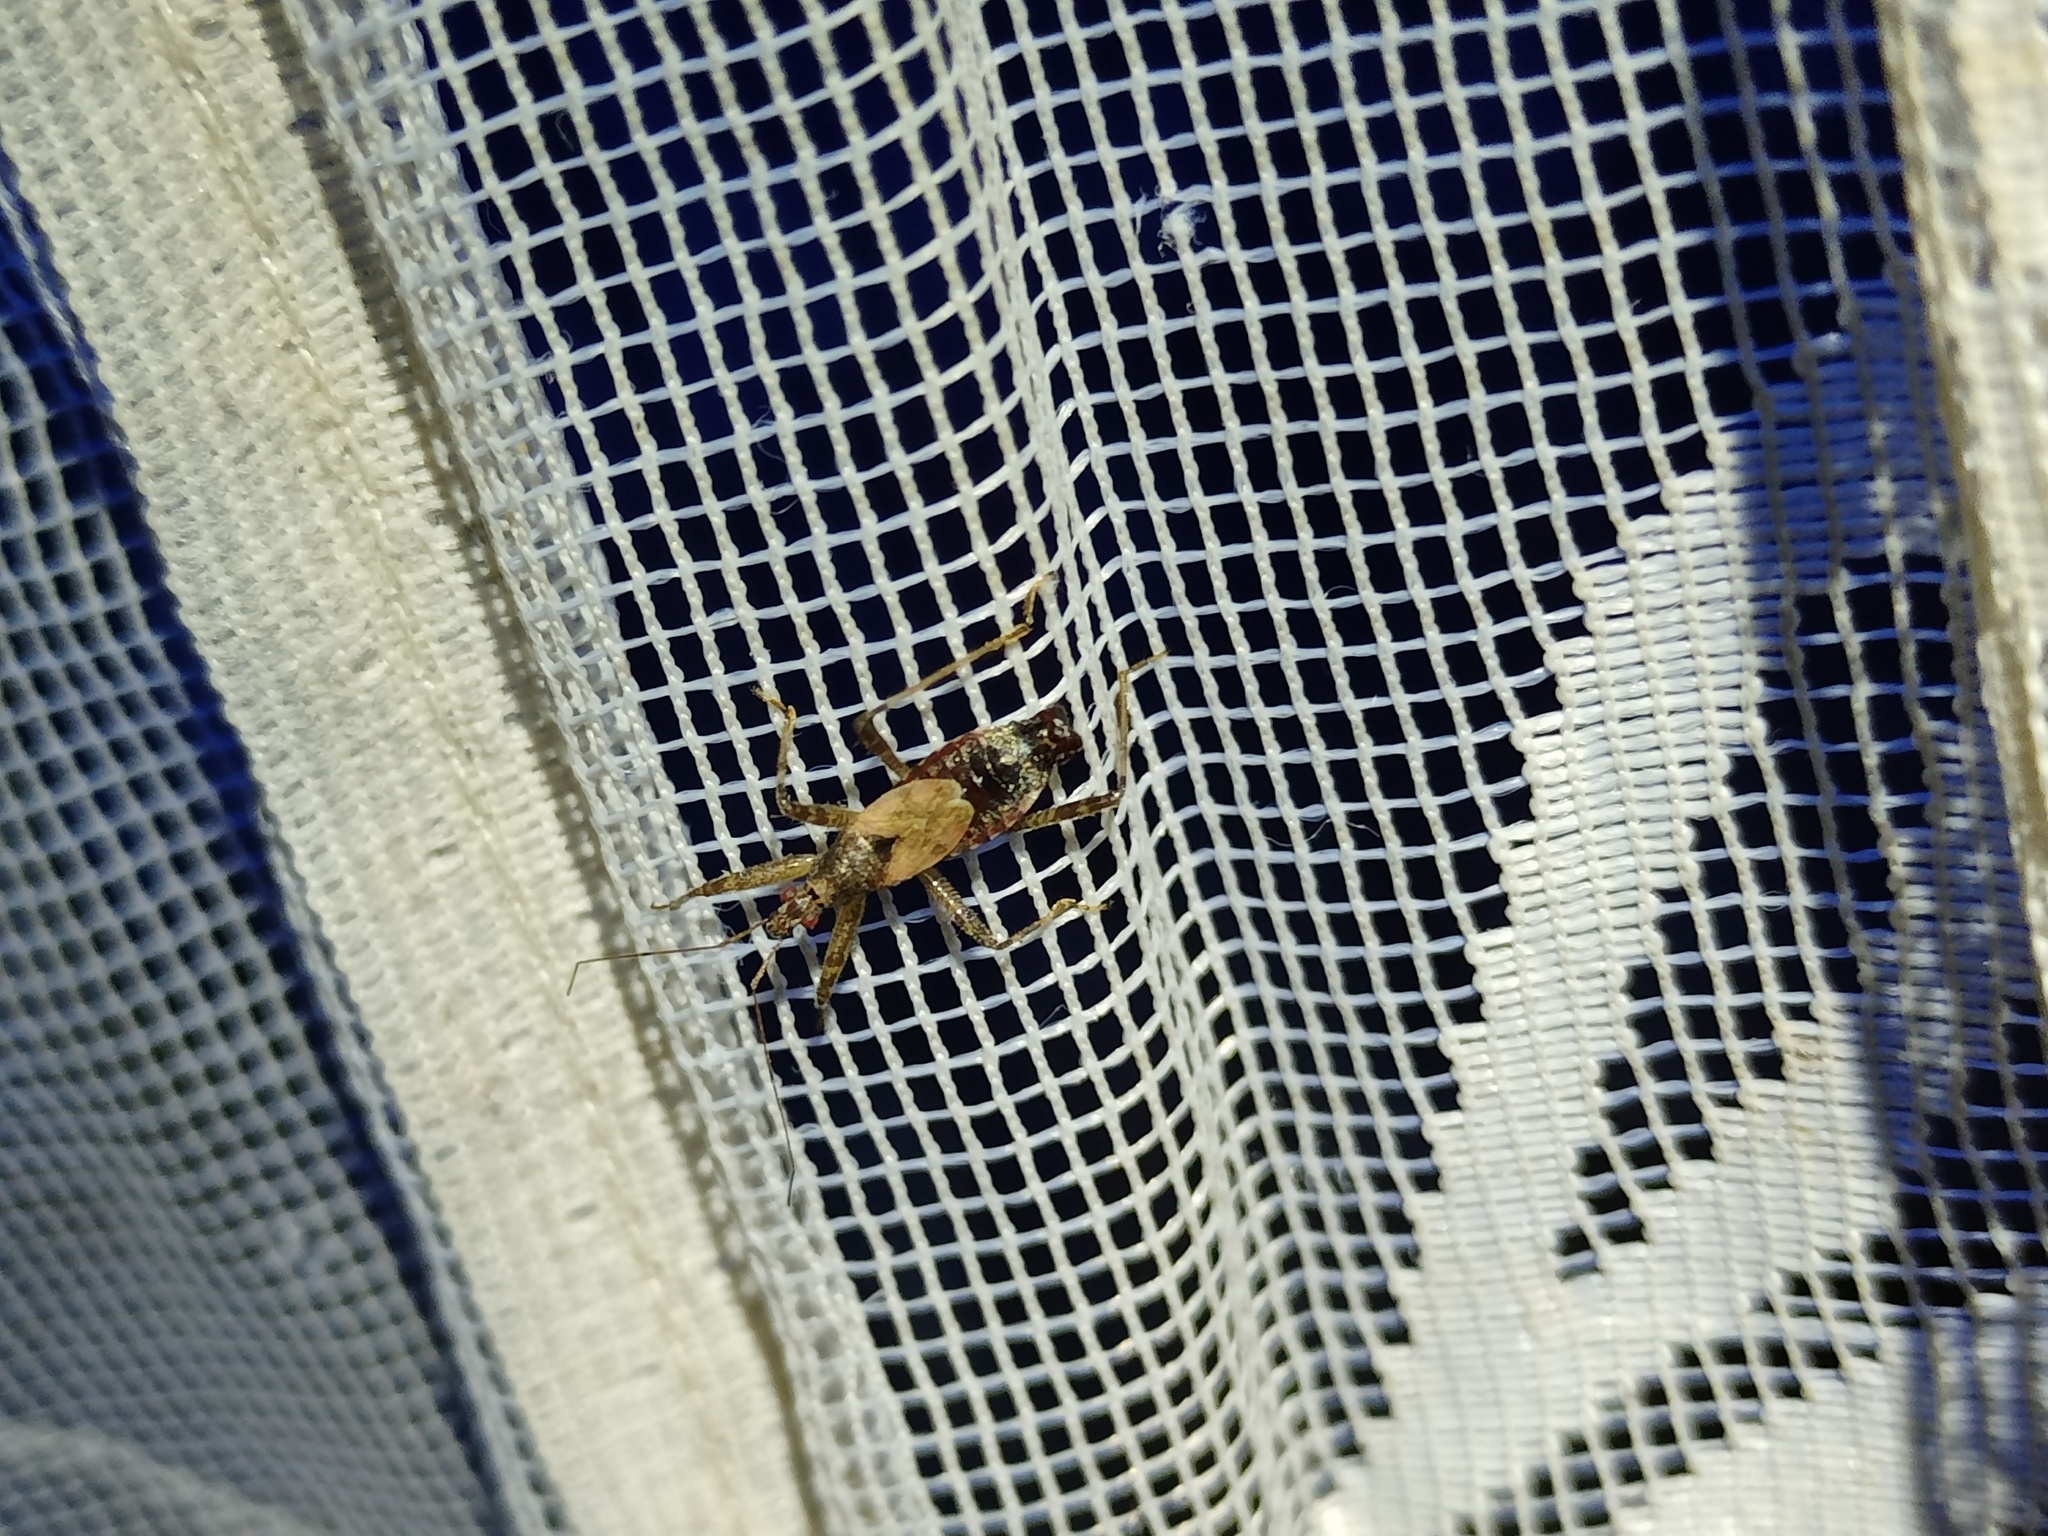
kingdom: Animalia
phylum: Arthropoda
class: Insecta
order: Hemiptera
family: Nabidae
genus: Himacerus
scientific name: Himacerus apterus
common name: Tree damsel bug
